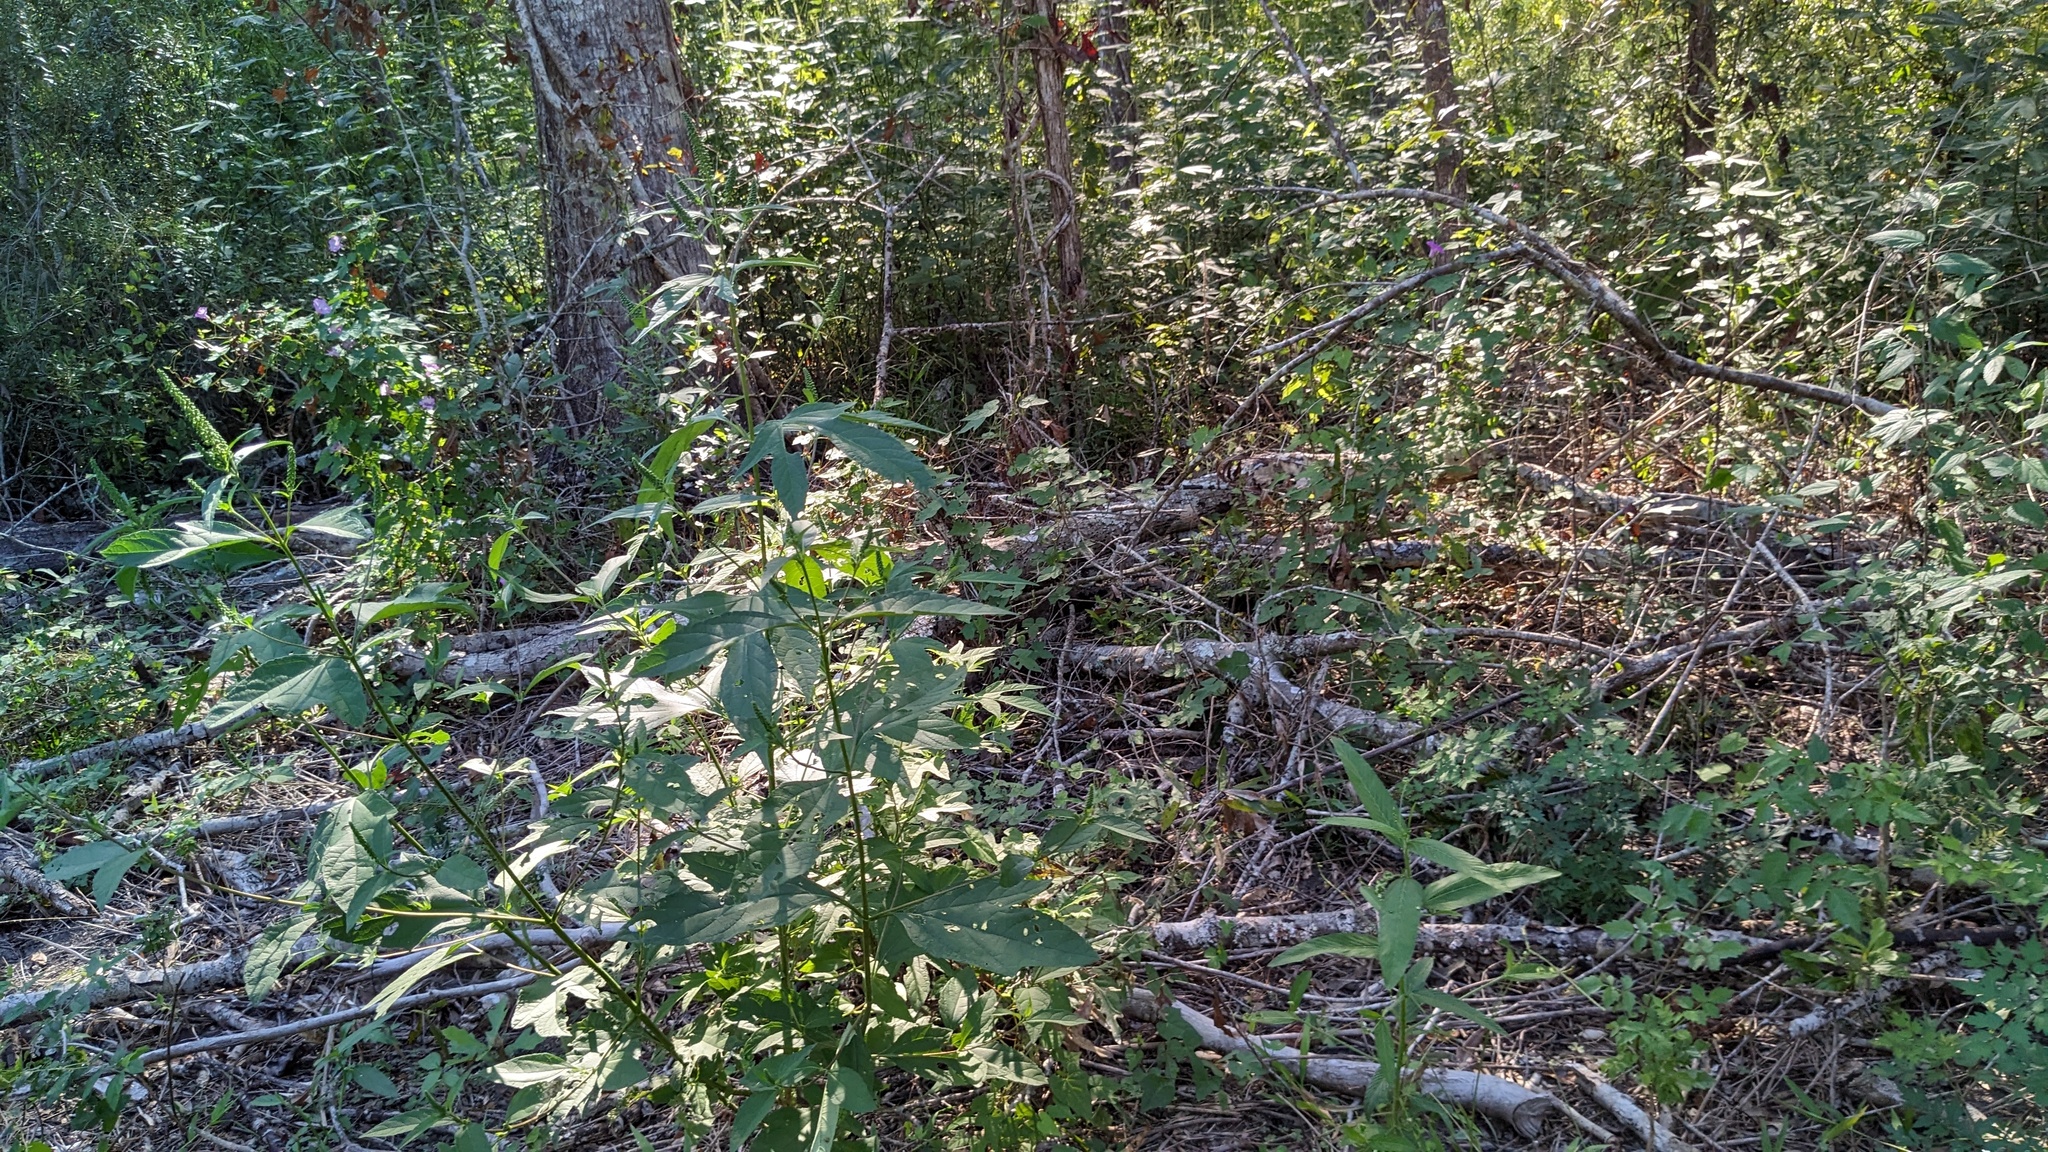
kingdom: Plantae
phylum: Tracheophyta
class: Magnoliopsida
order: Asterales
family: Asteraceae
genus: Ambrosia
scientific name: Ambrosia trifida
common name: Giant ragweed
